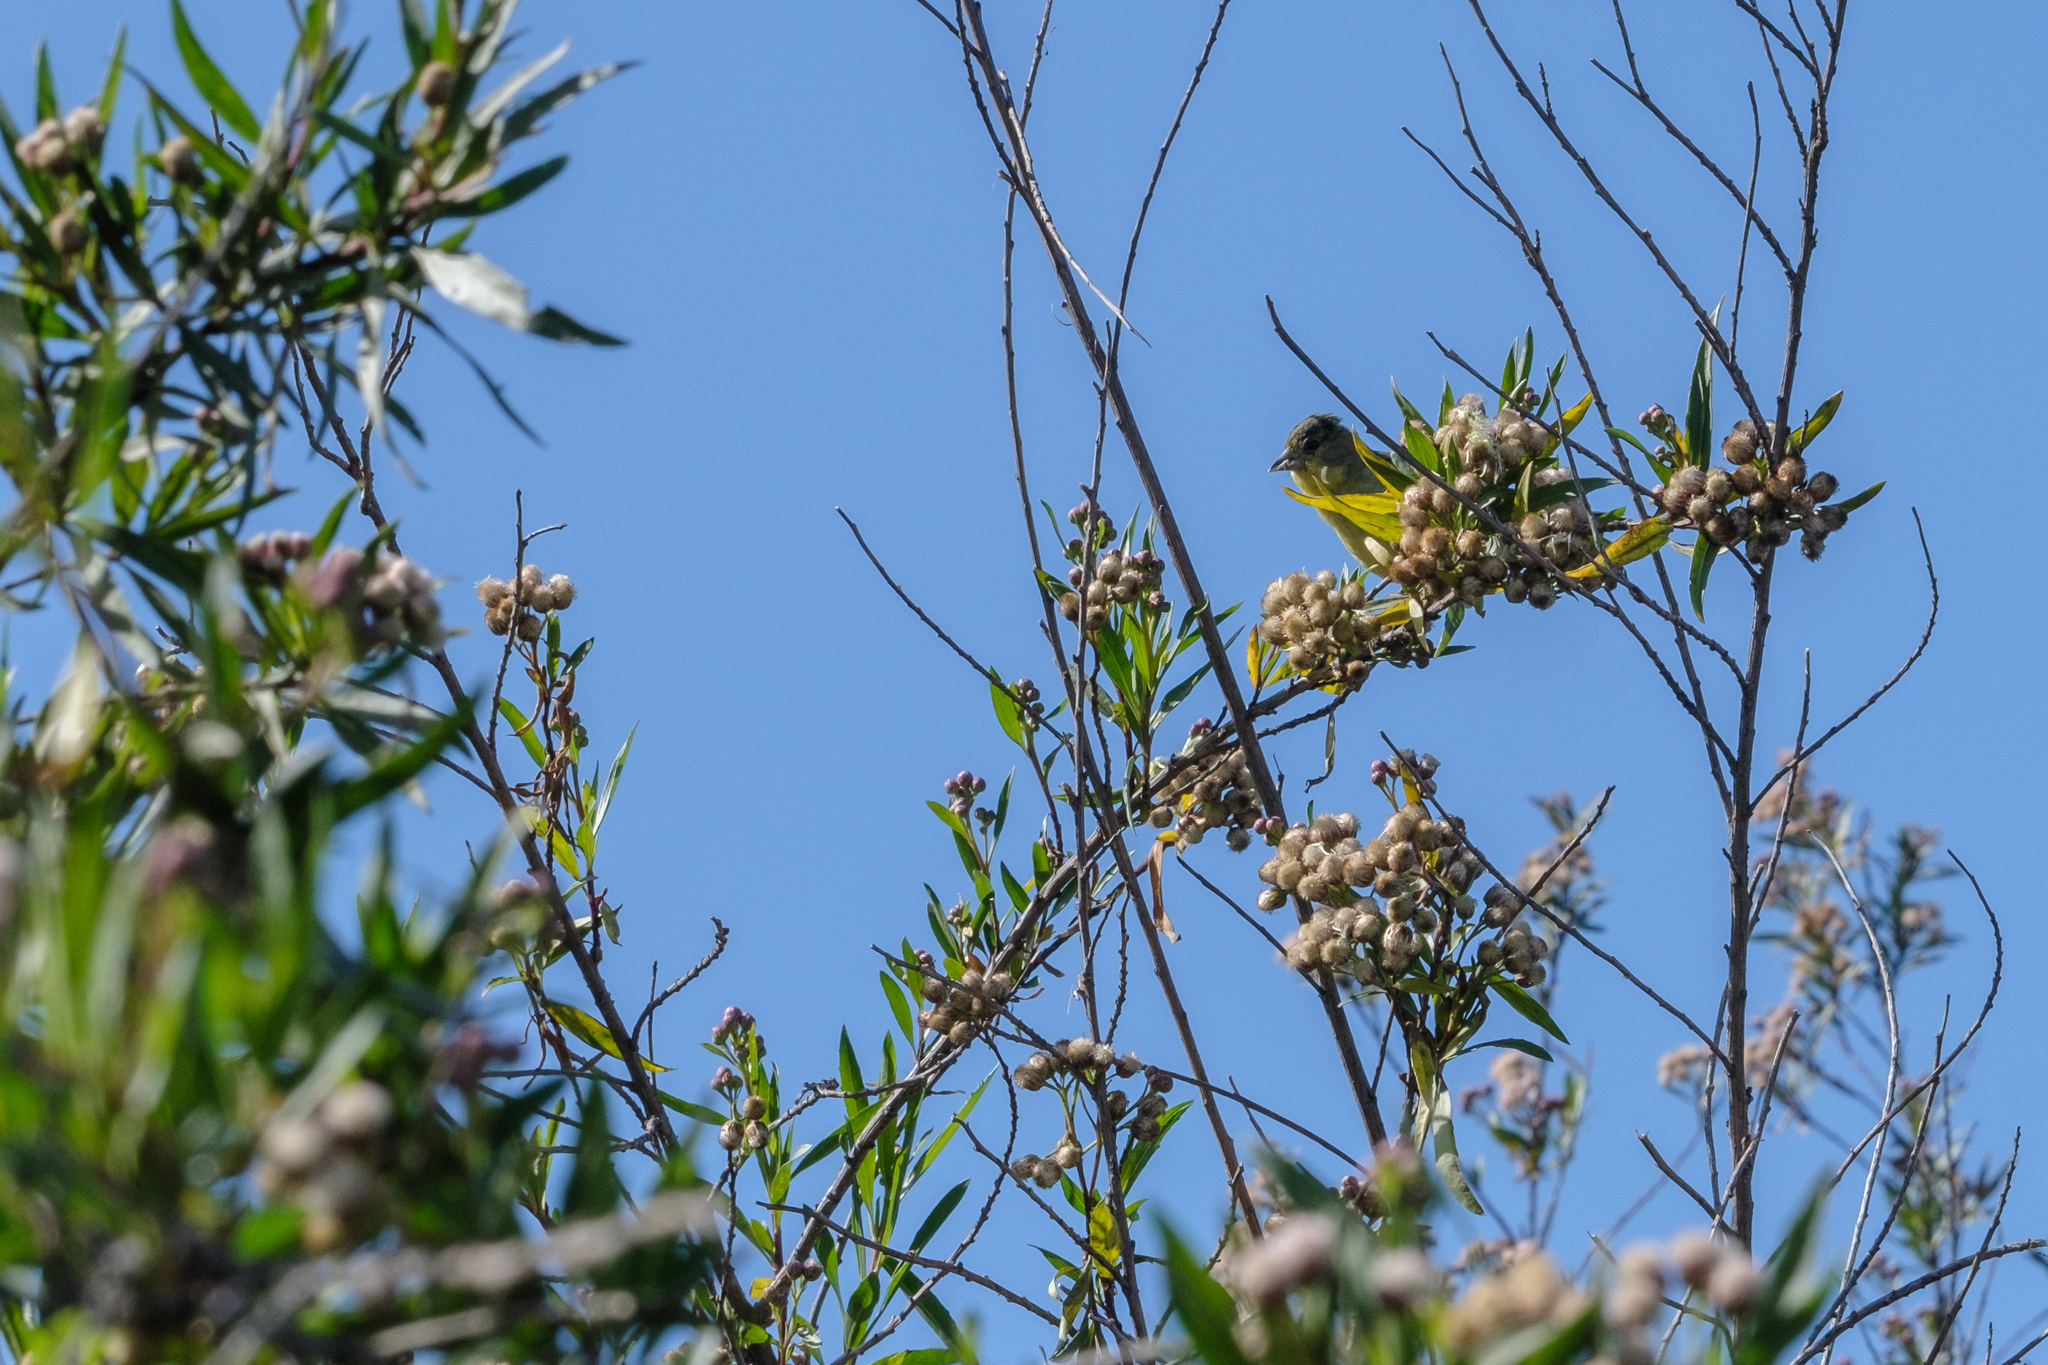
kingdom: Animalia
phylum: Chordata
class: Aves
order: Passeriformes
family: Fringillidae
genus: Spinus
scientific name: Spinus psaltria
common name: Lesser goldfinch
